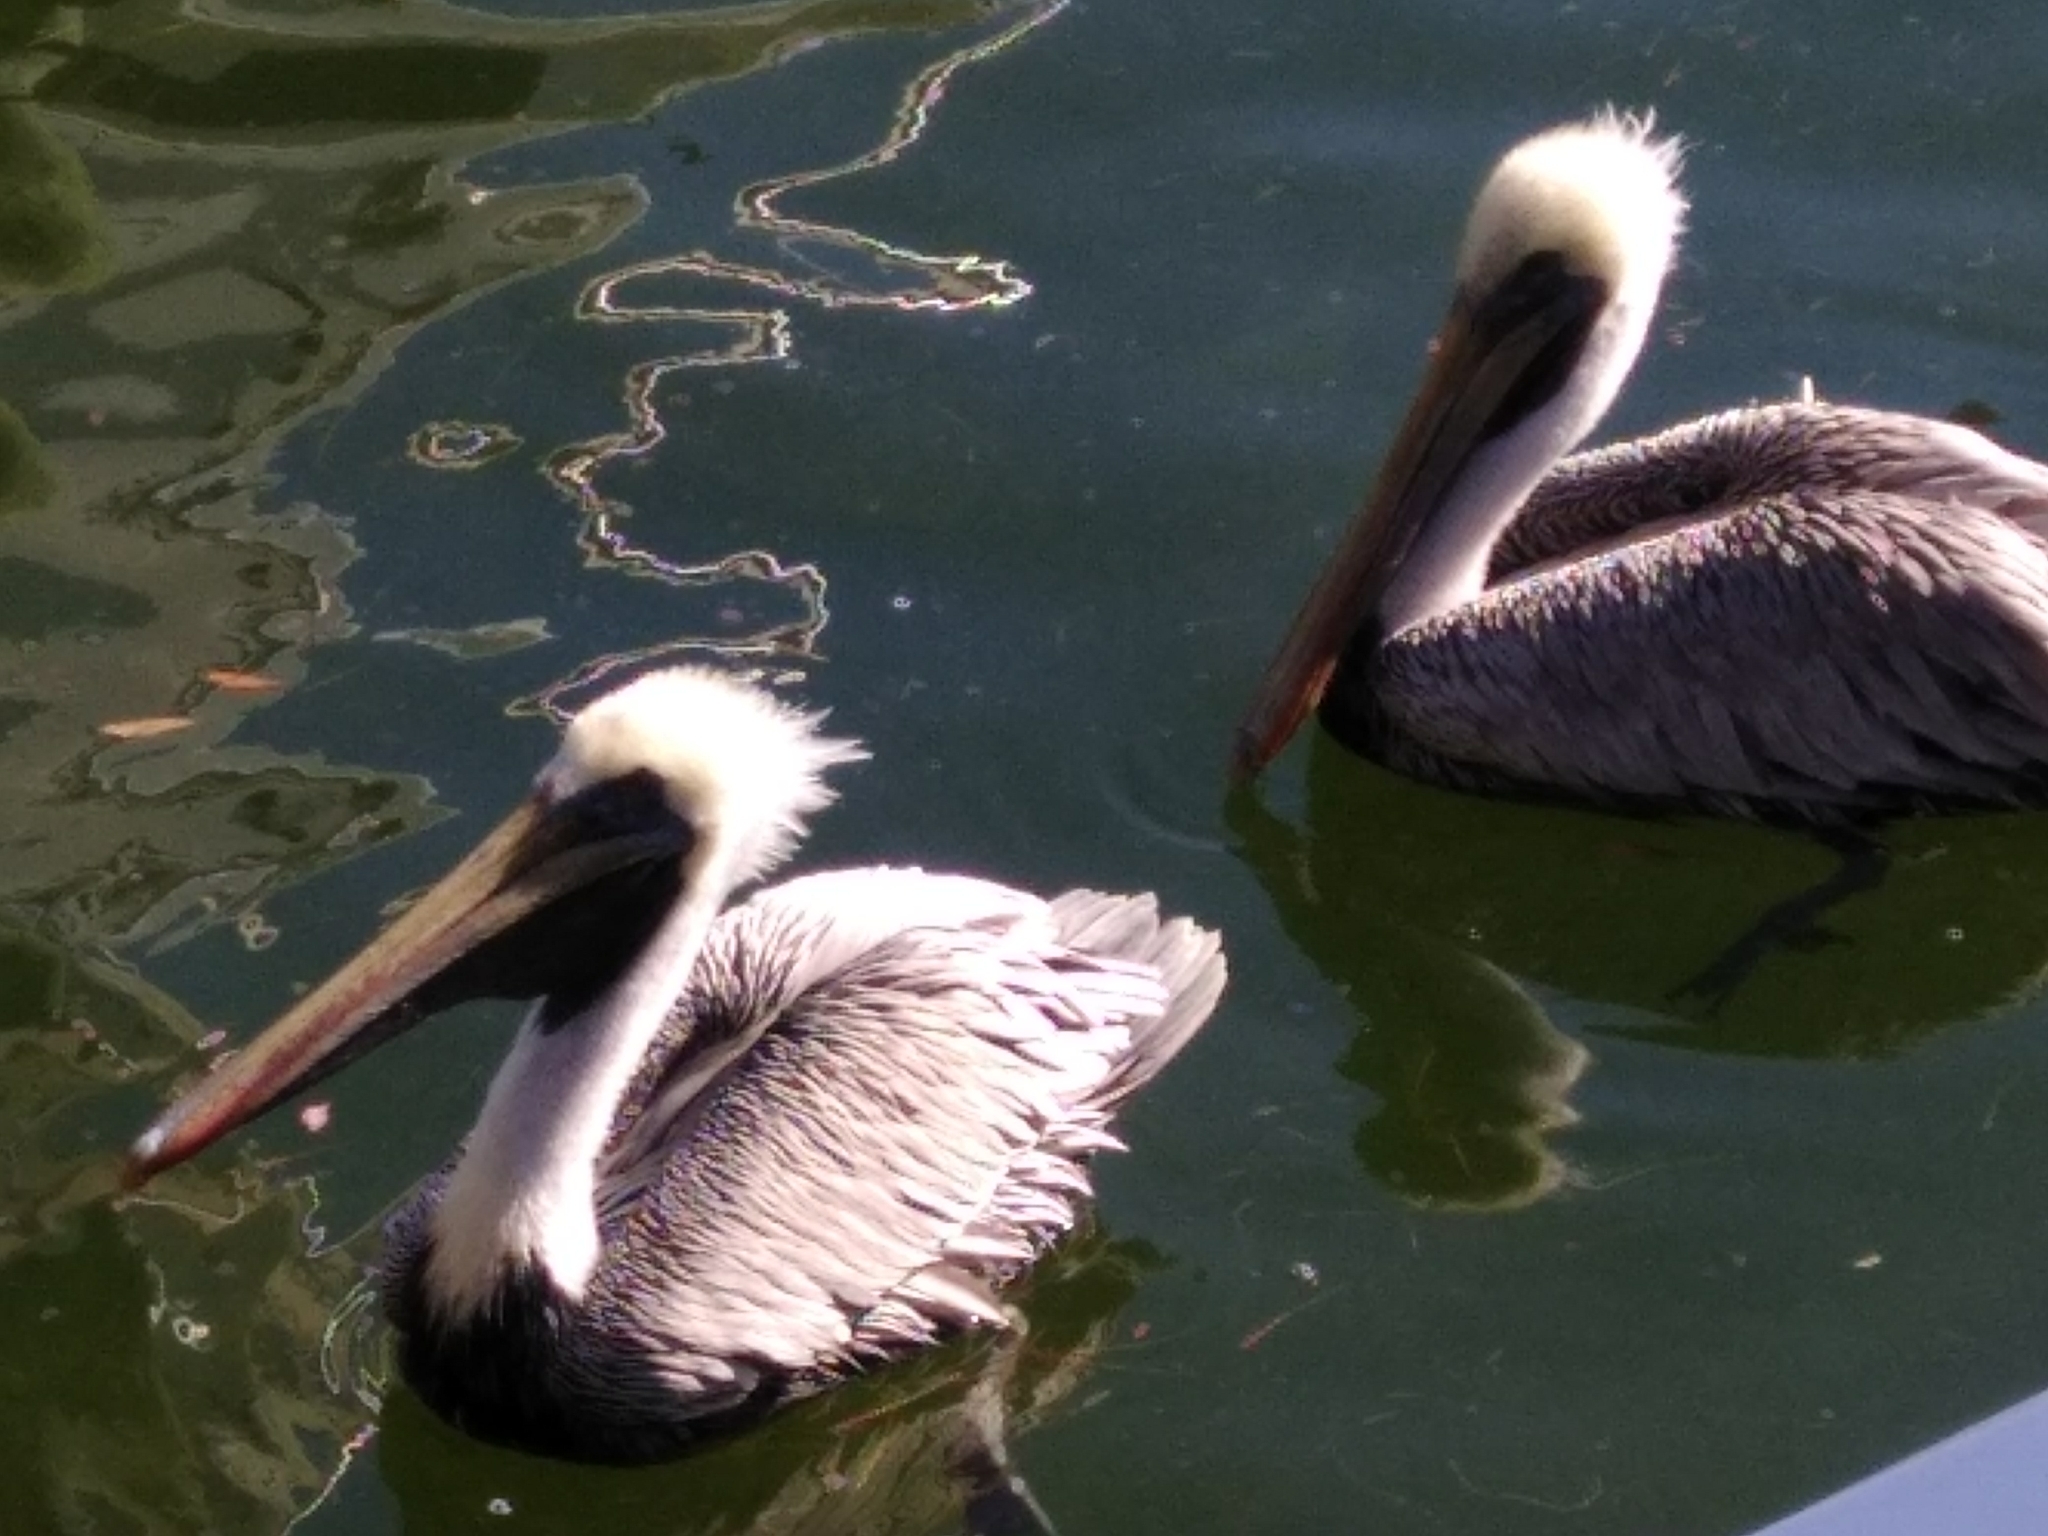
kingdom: Animalia
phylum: Chordata
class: Aves
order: Pelecaniformes
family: Pelecanidae
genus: Pelecanus
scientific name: Pelecanus occidentalis
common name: Brown pelican
